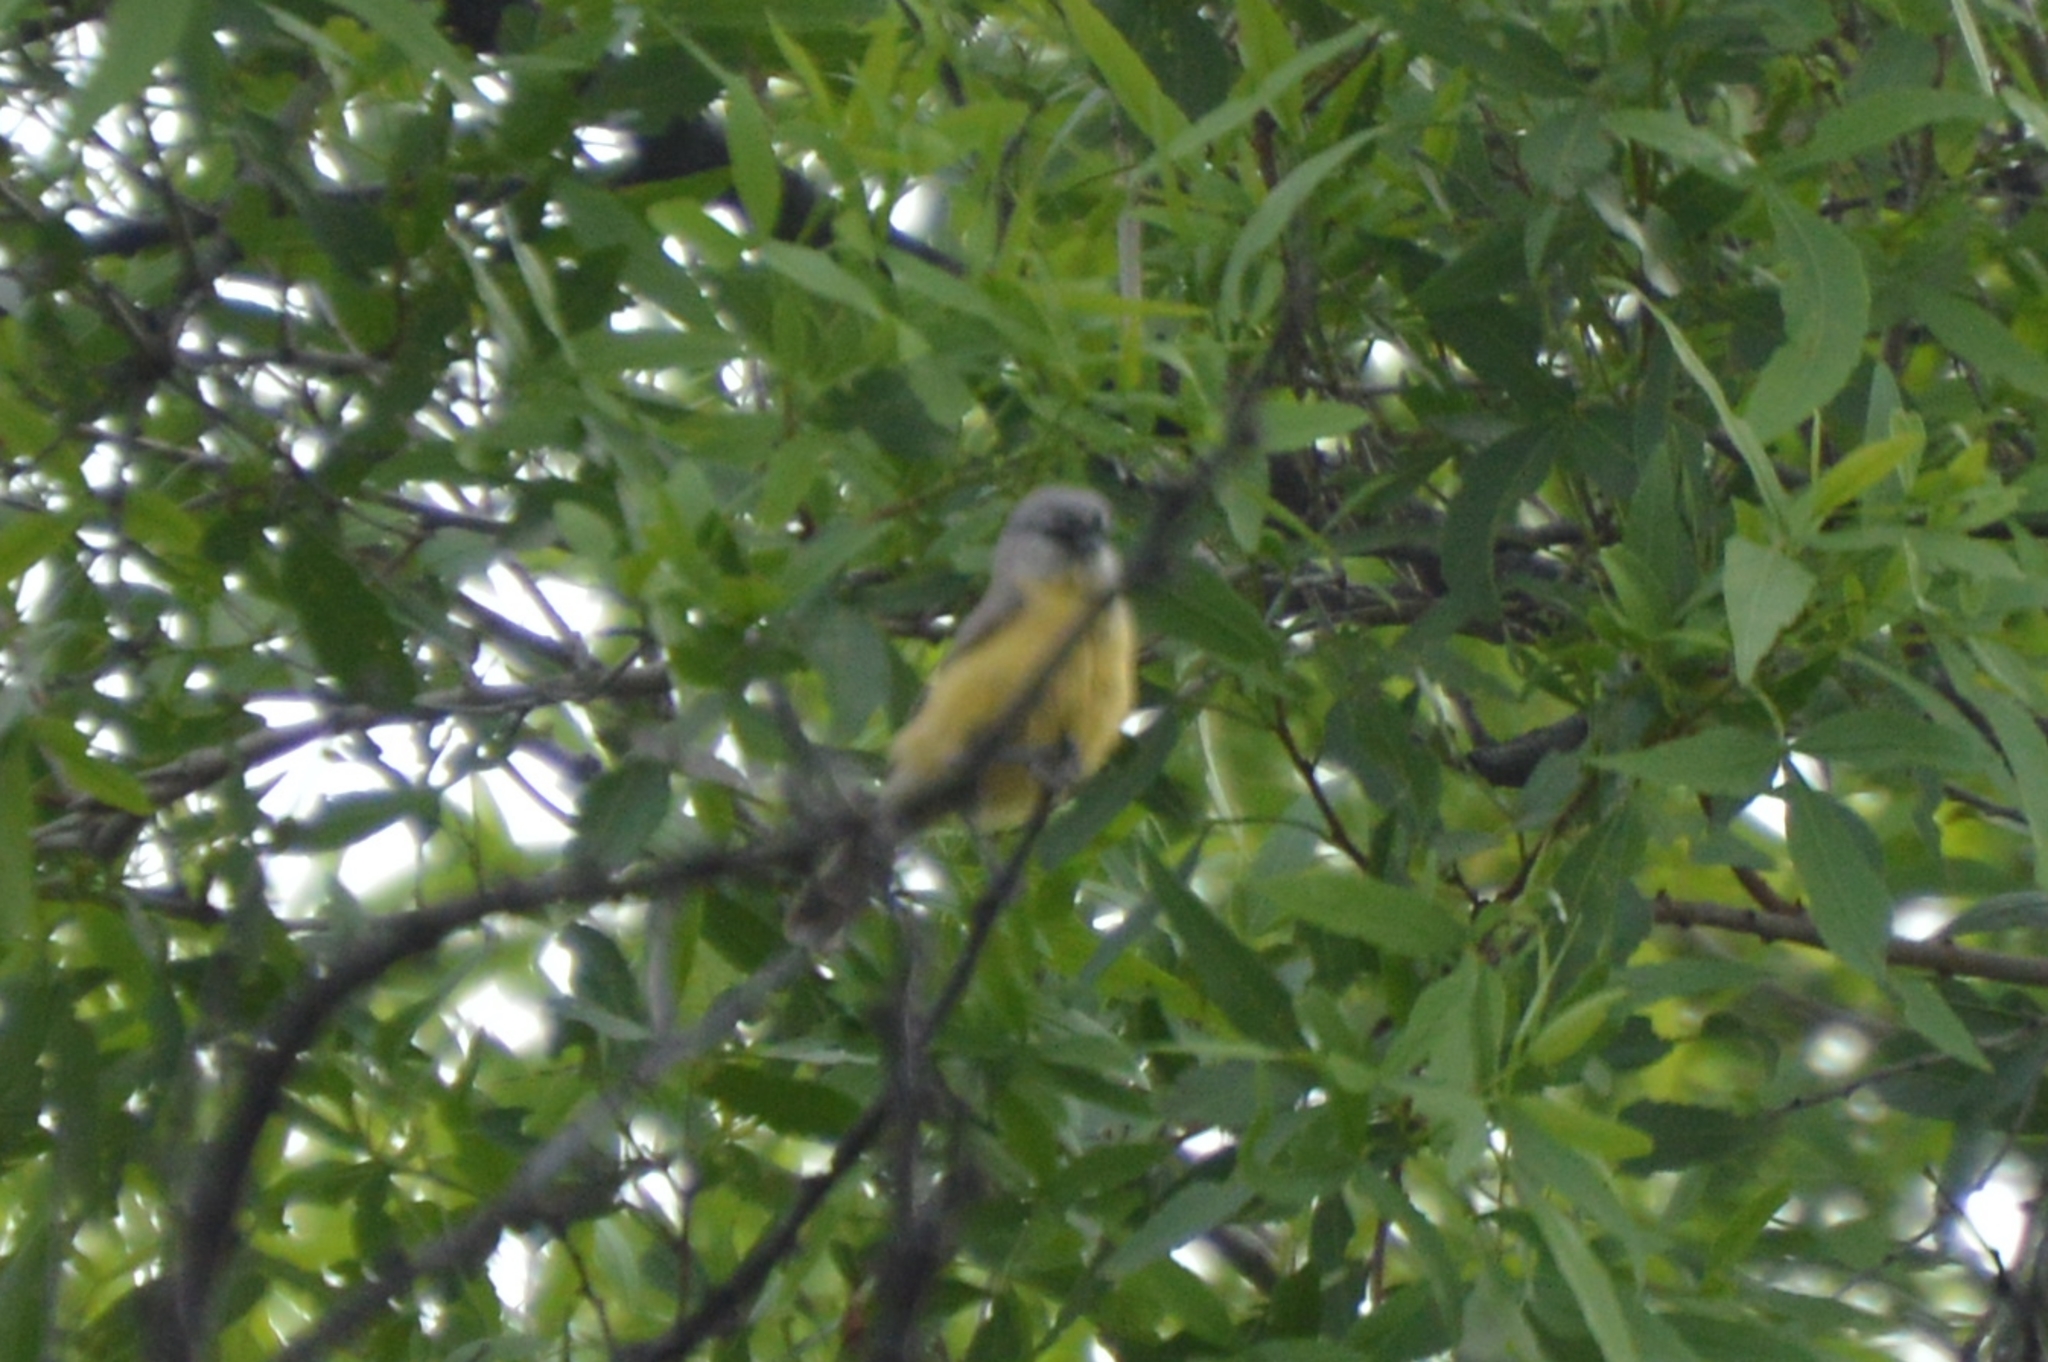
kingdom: Animalia
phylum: Chordata
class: Aves
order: Passeriformes
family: Remizidae
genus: Anthoscopus
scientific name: Anthoscopus minutus
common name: Cape penduline tit
